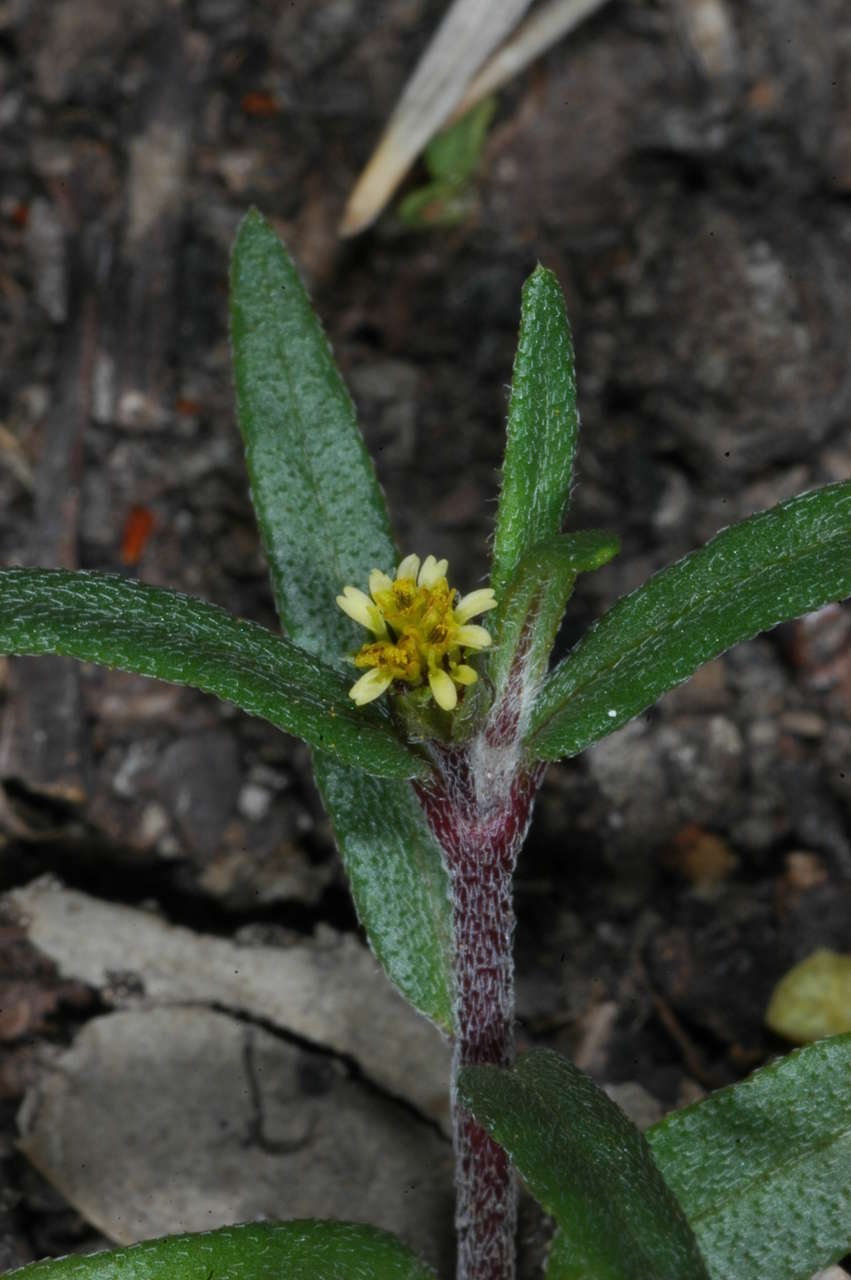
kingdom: Plantae
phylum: Tracheophyta
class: Magnoliopsida
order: Asterales
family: Asteraceae
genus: Eclipta
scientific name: Eclipta platyglossa
